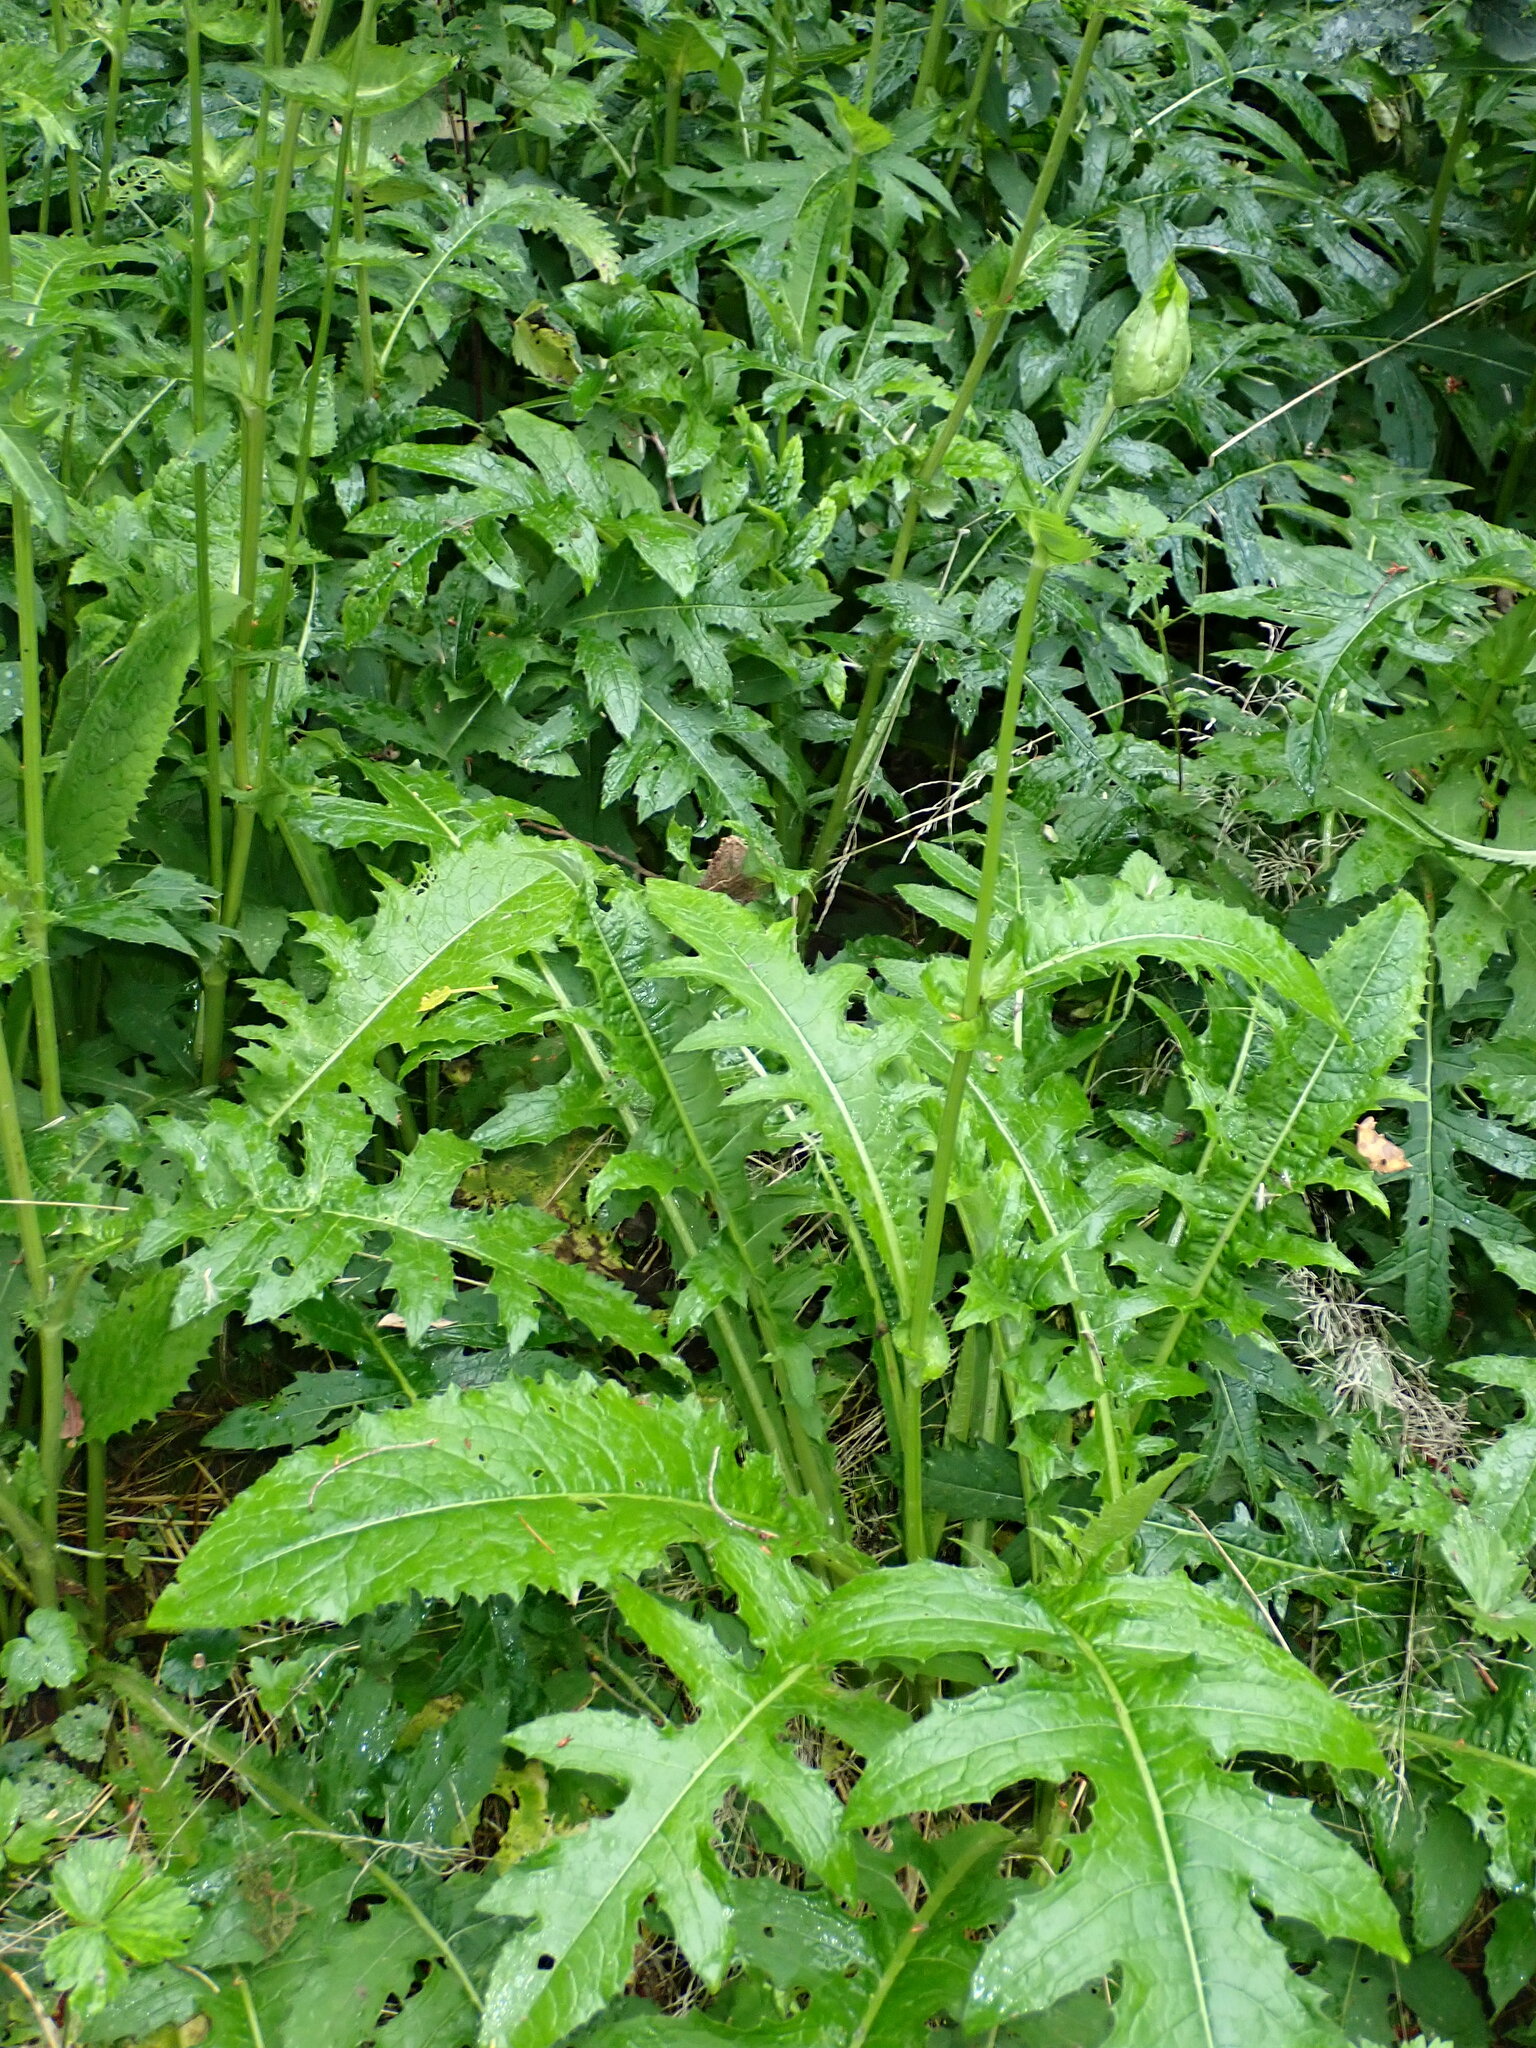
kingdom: Plantae
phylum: Tracheophyta
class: Magnoliopsida
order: Asterales
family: Asteraceae
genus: Cirsium
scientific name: Cirsium oleraceum
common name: Cabbage thistle
